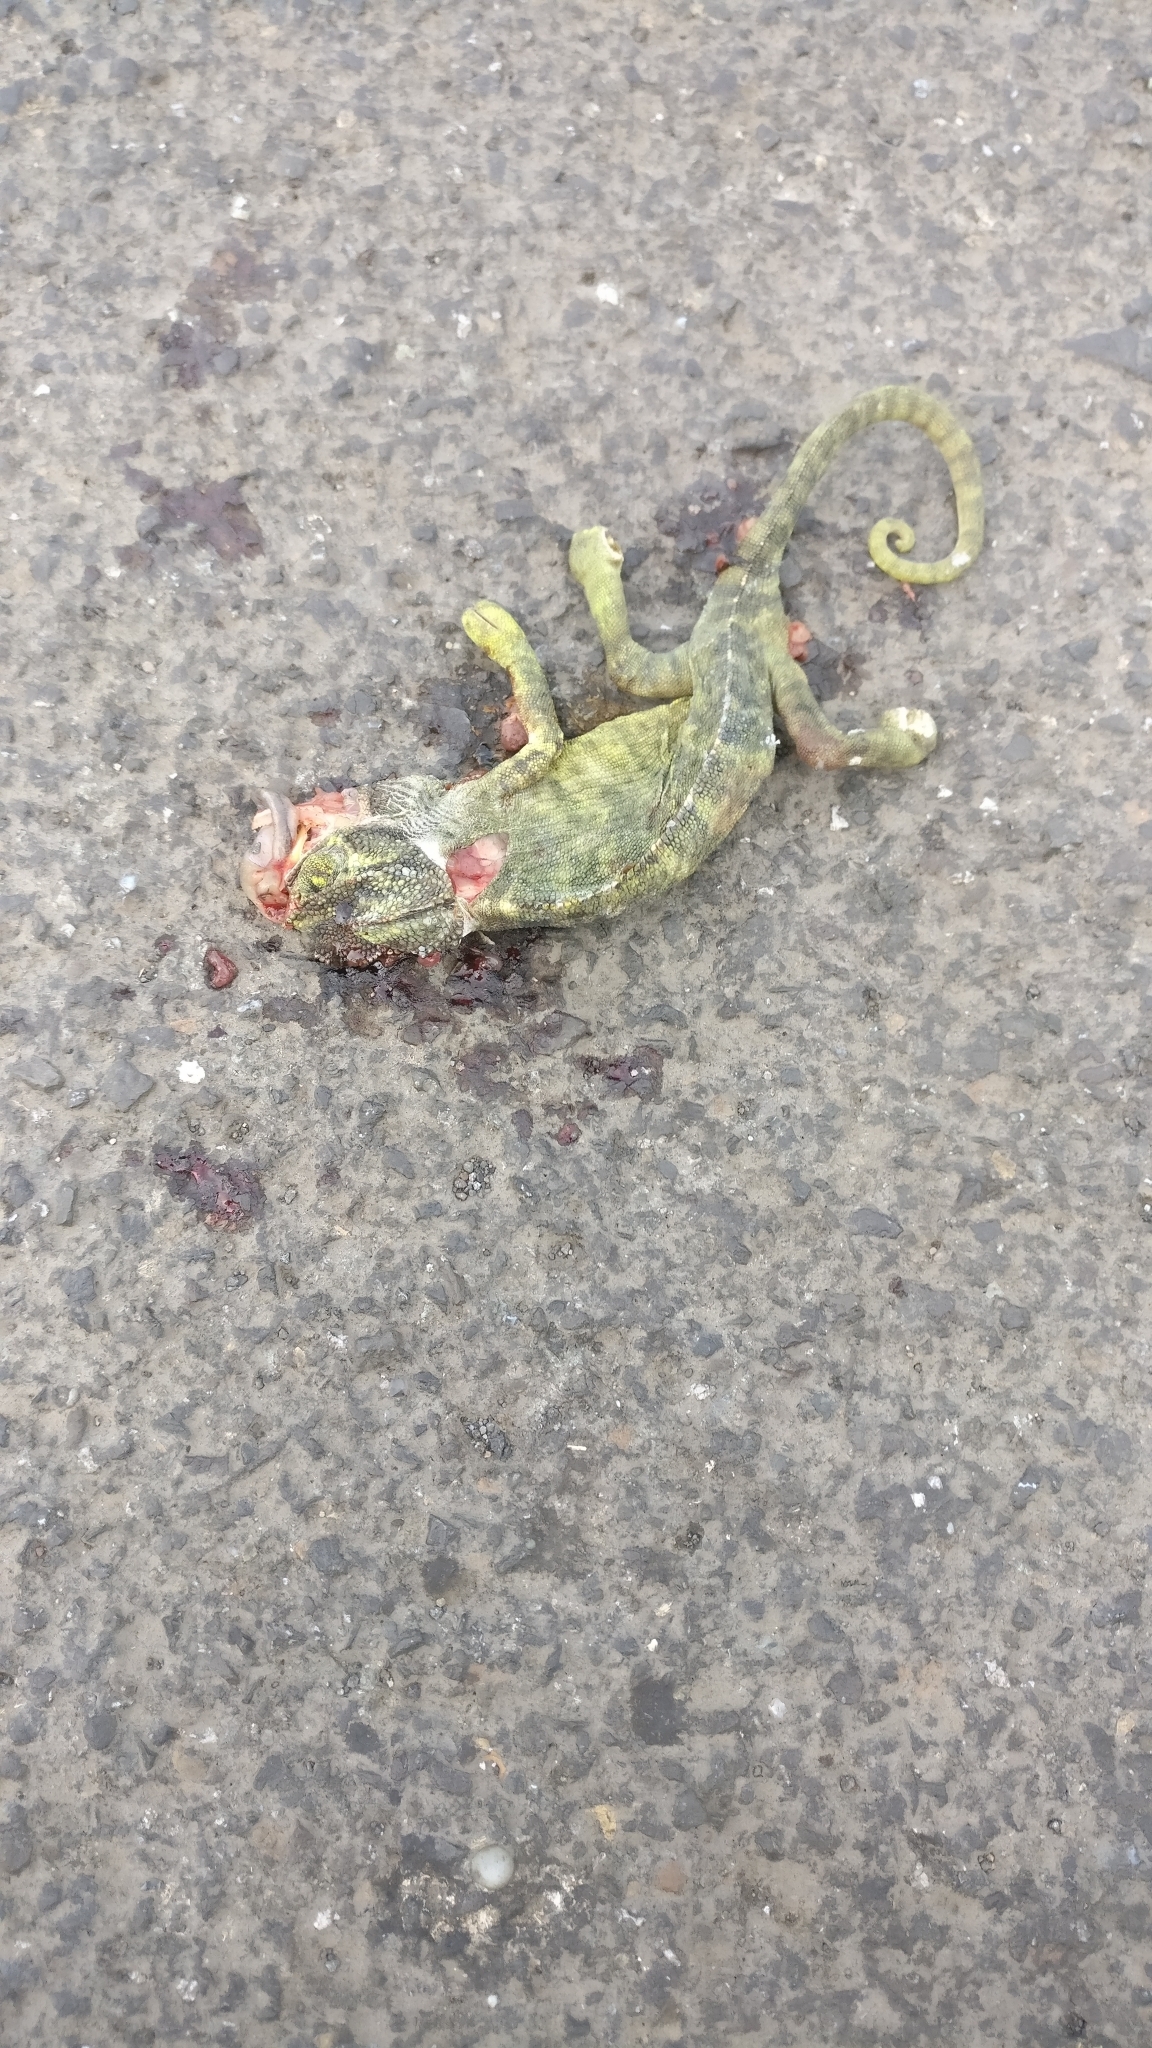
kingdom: Animalia
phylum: Chordata
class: Squamata
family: Chamaeleonidae
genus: Chamaeleo
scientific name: Chamaeleo zeylanicus
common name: Indian chameleon
